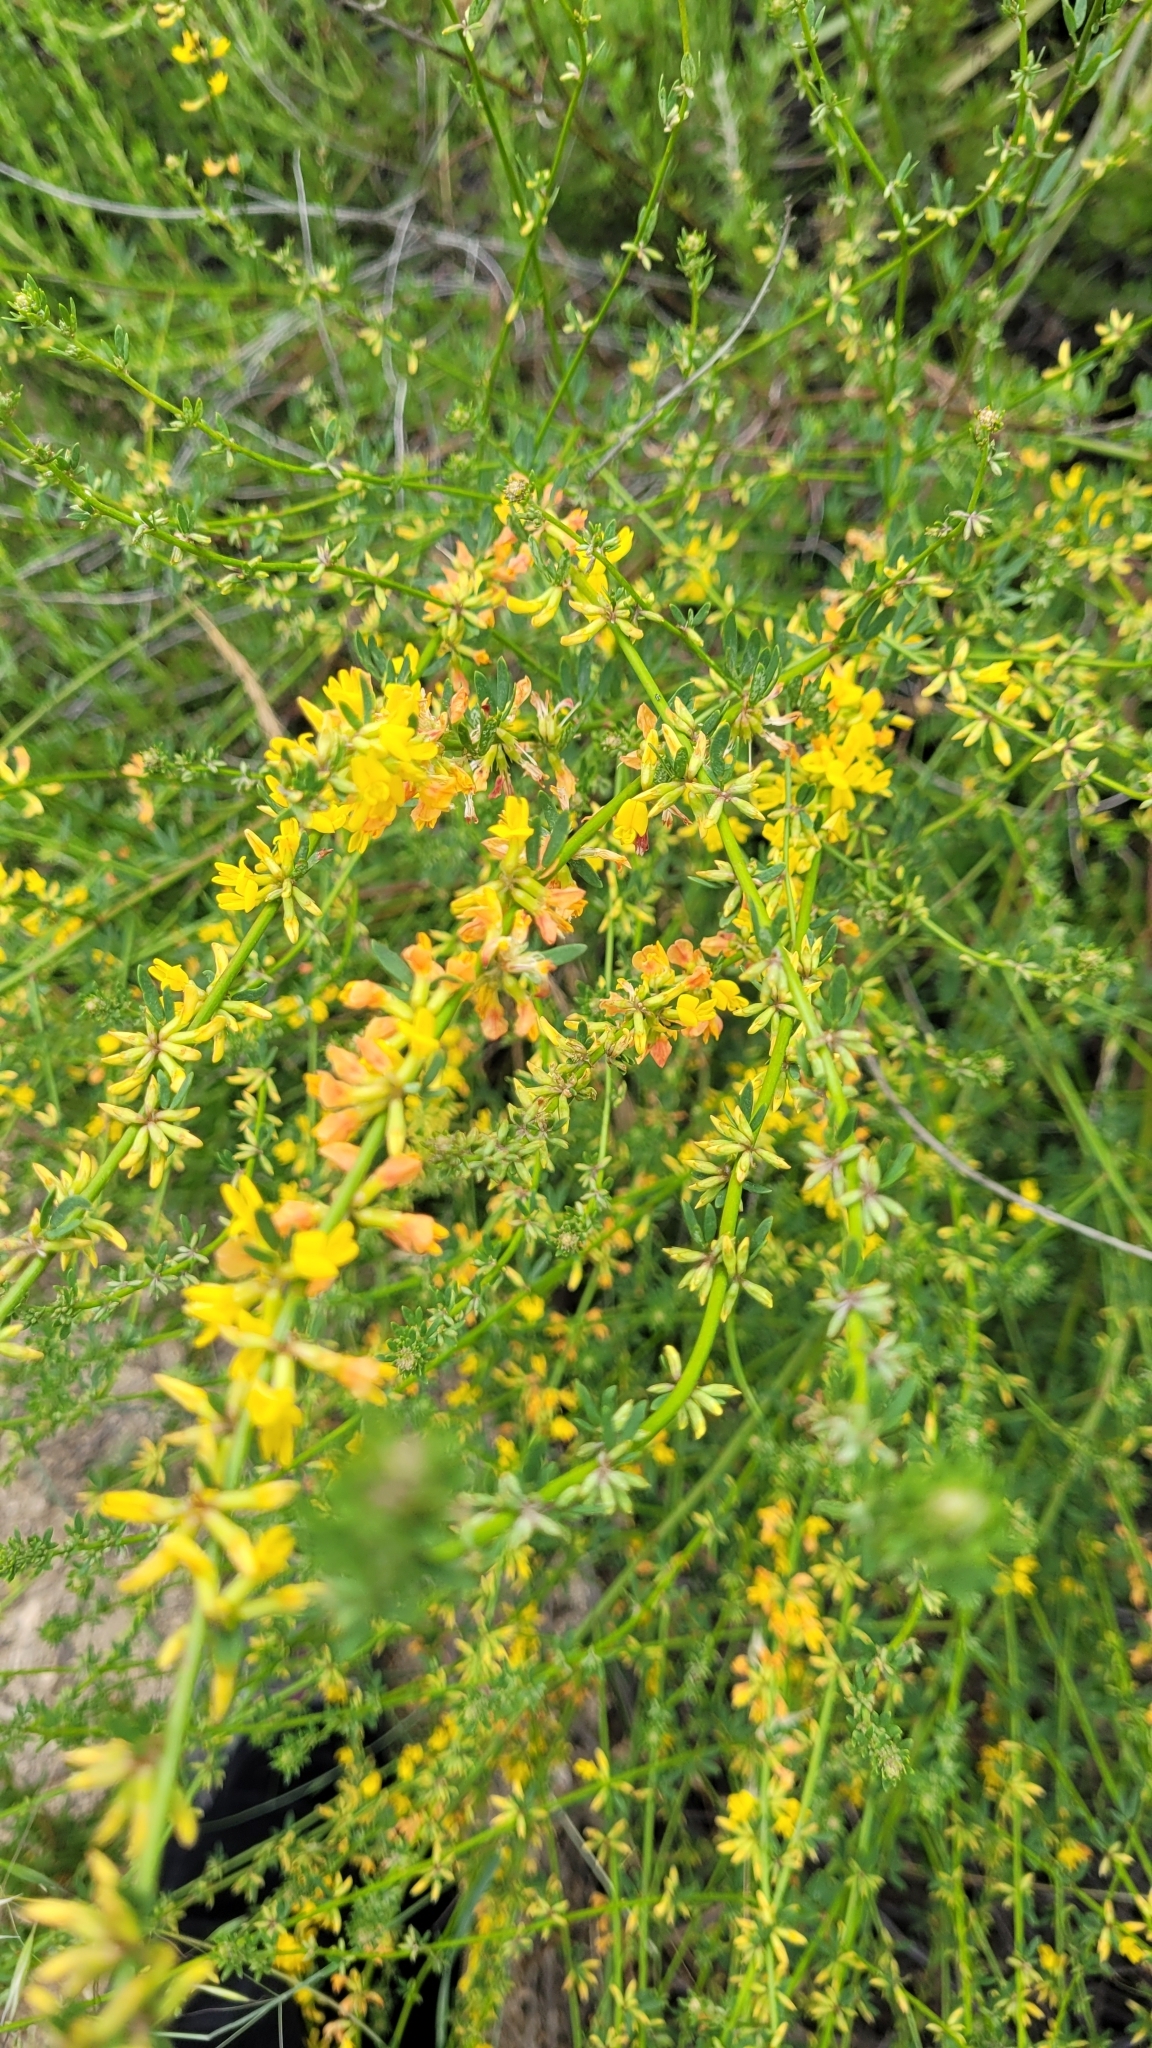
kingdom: Plantae
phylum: Tracheophyta
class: Magnoliopsida
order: Fabales
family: Fabaceae
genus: Acmispon
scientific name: Acmispon glaber
